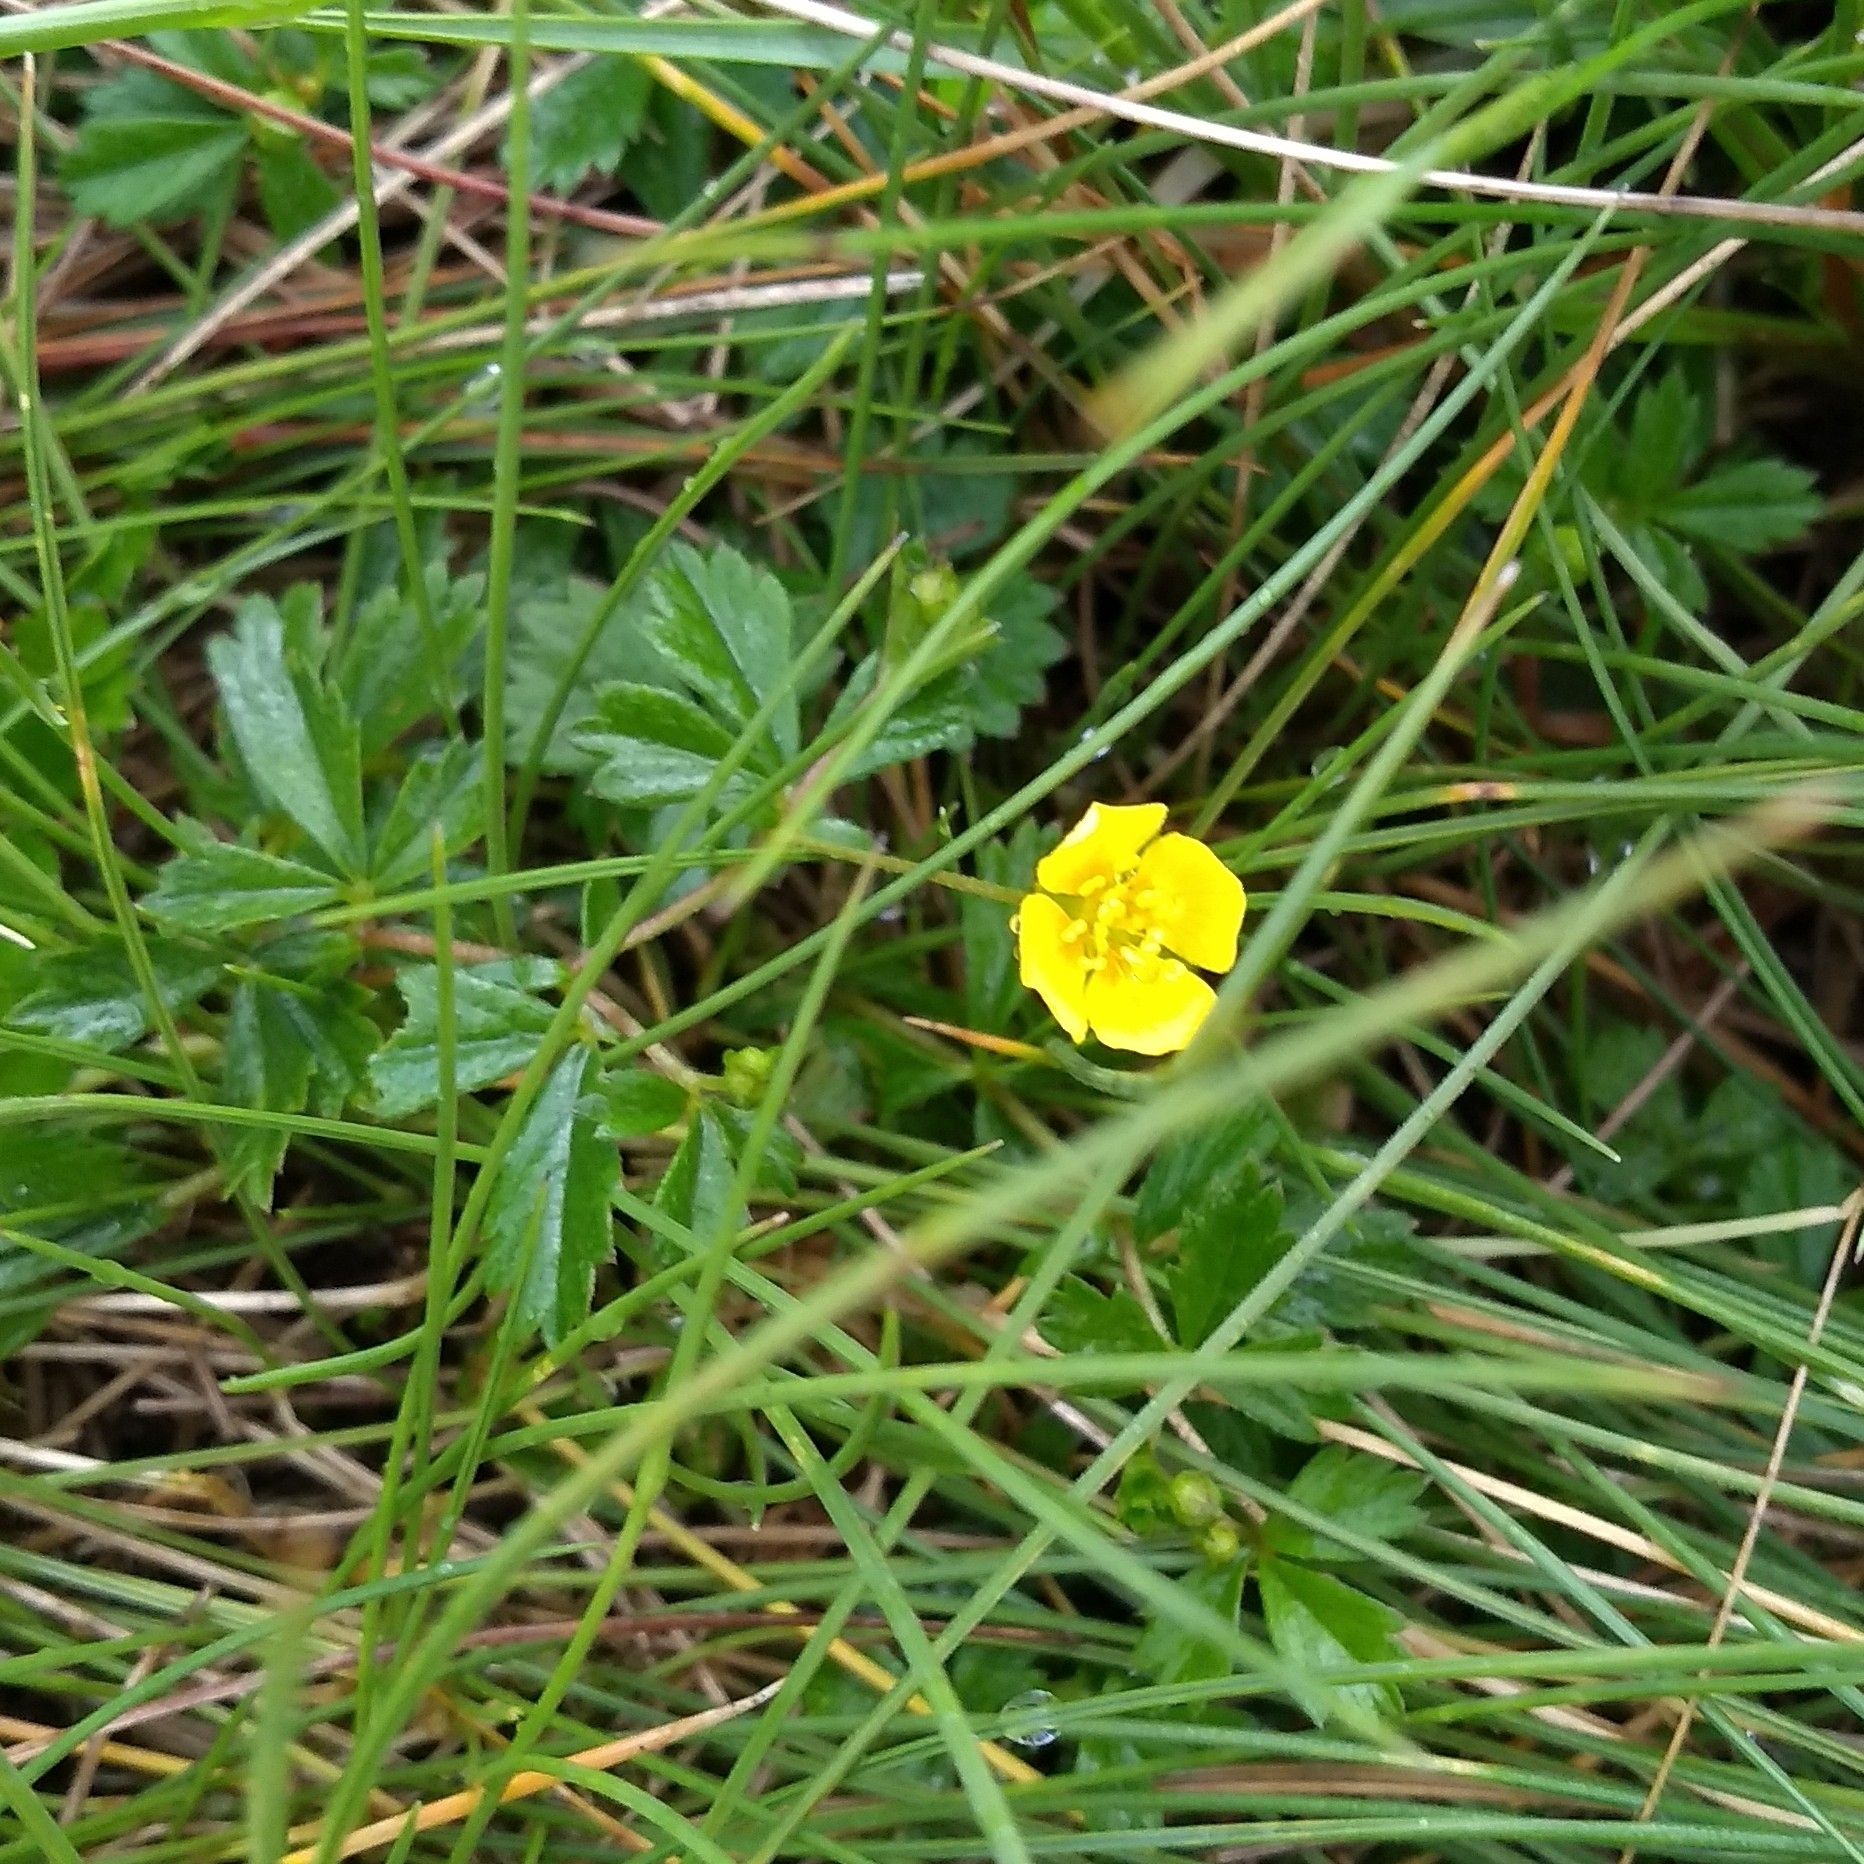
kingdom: Plantae
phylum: Tracheophyta
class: Magnoliopsida
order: Rosales
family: Rosaceae
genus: Potentilla
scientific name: Potentilla erecta
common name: Tormentil
